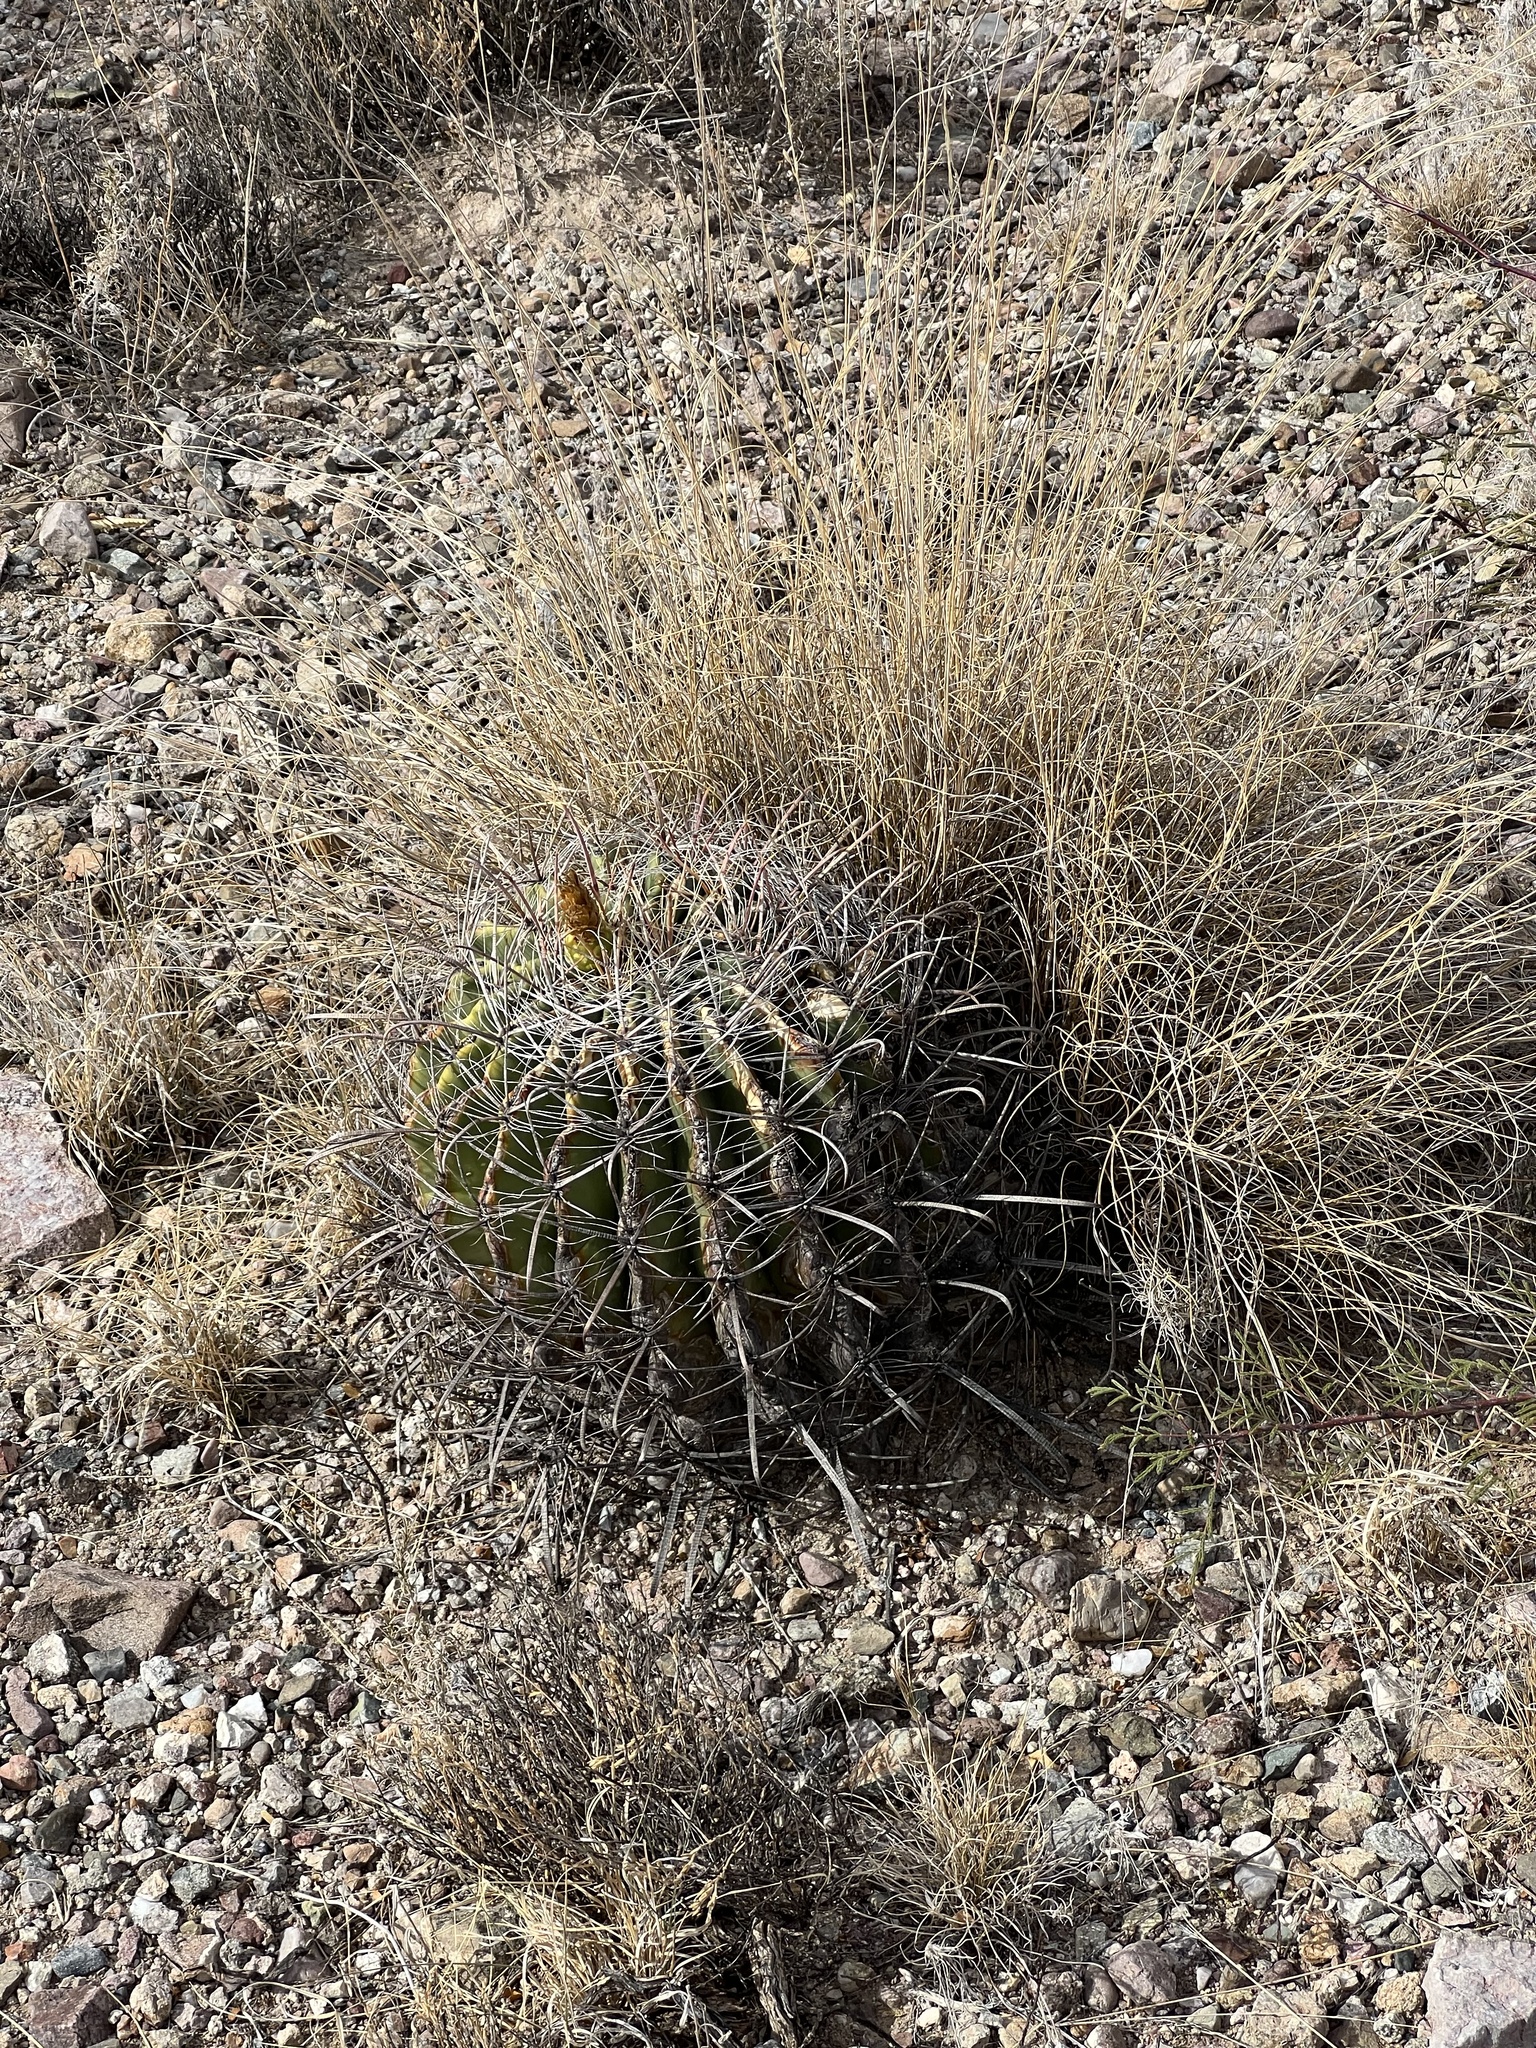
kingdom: Plantae
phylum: Tracheophyta
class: Magnoliopsida
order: Caryophyllales
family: Cactaceae
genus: Ferocactus
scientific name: Ferocactus wislizeni
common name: Candy barrel cactus
